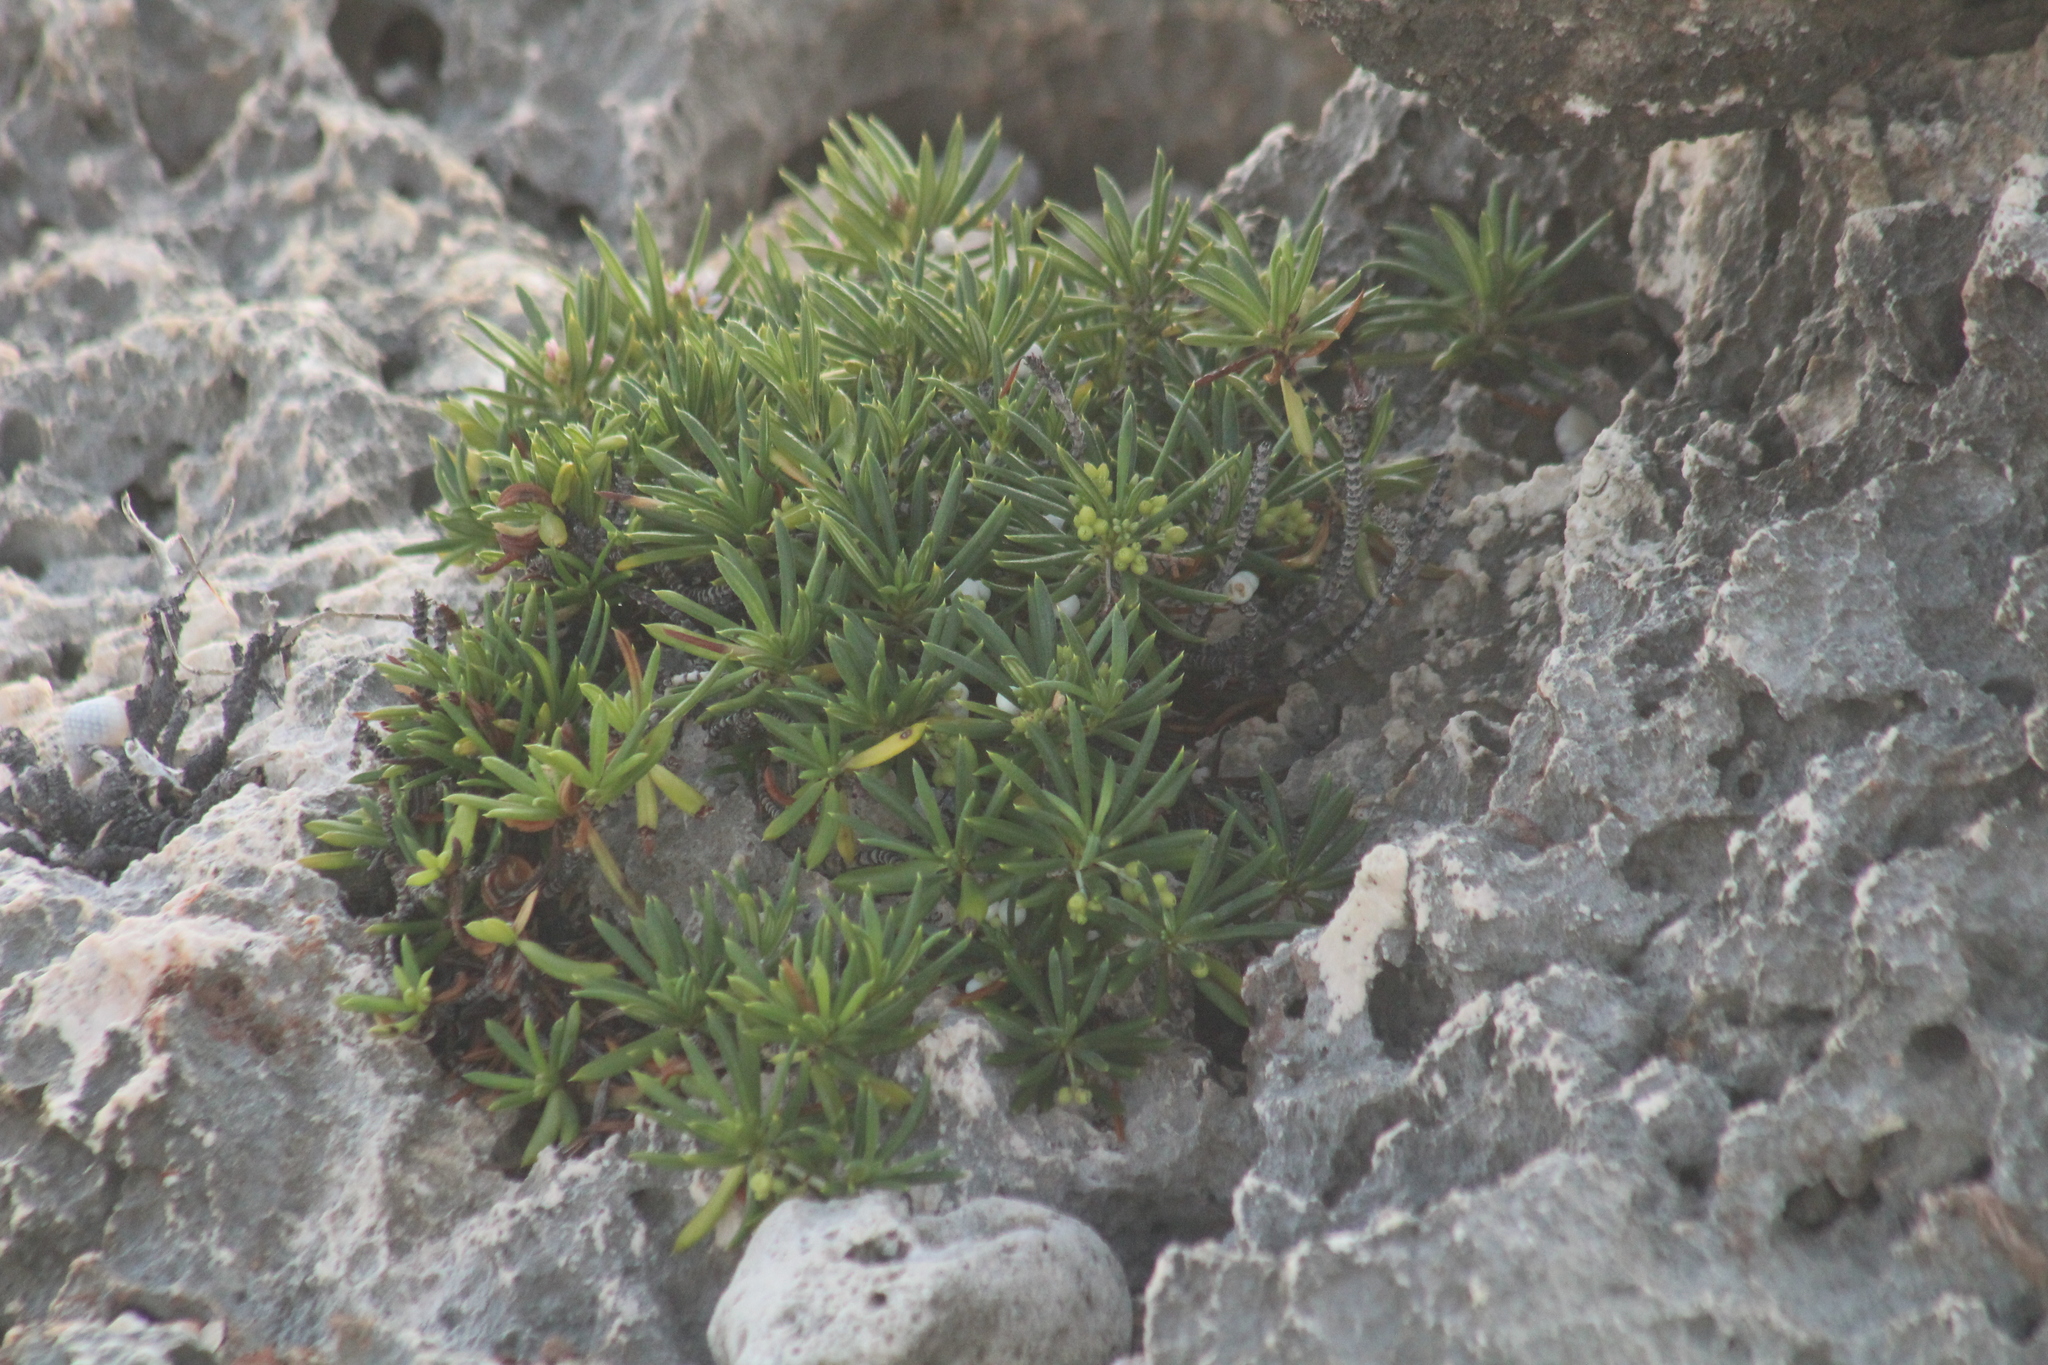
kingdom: Plantae
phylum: Tracheophyta
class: Magnoliopsida
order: Gentianales
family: Rubiaceae
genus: Strumpfia
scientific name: Strumpfia maritima
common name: Pride-of-big pine
